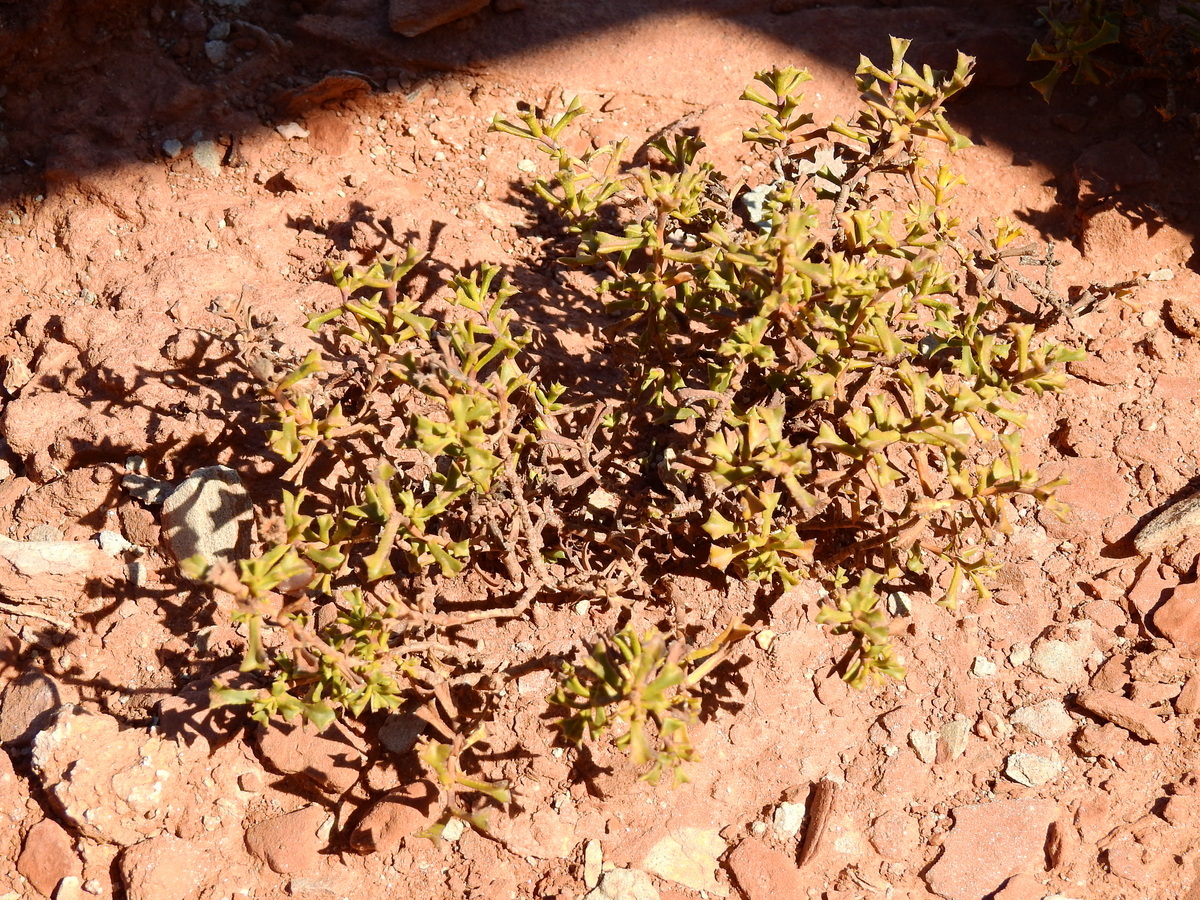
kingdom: Plantae
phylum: Tracheophyta
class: Magnoliopsida
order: Boraginales
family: Ehretiaceae
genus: Ehretia
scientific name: Ehretia cortesia
